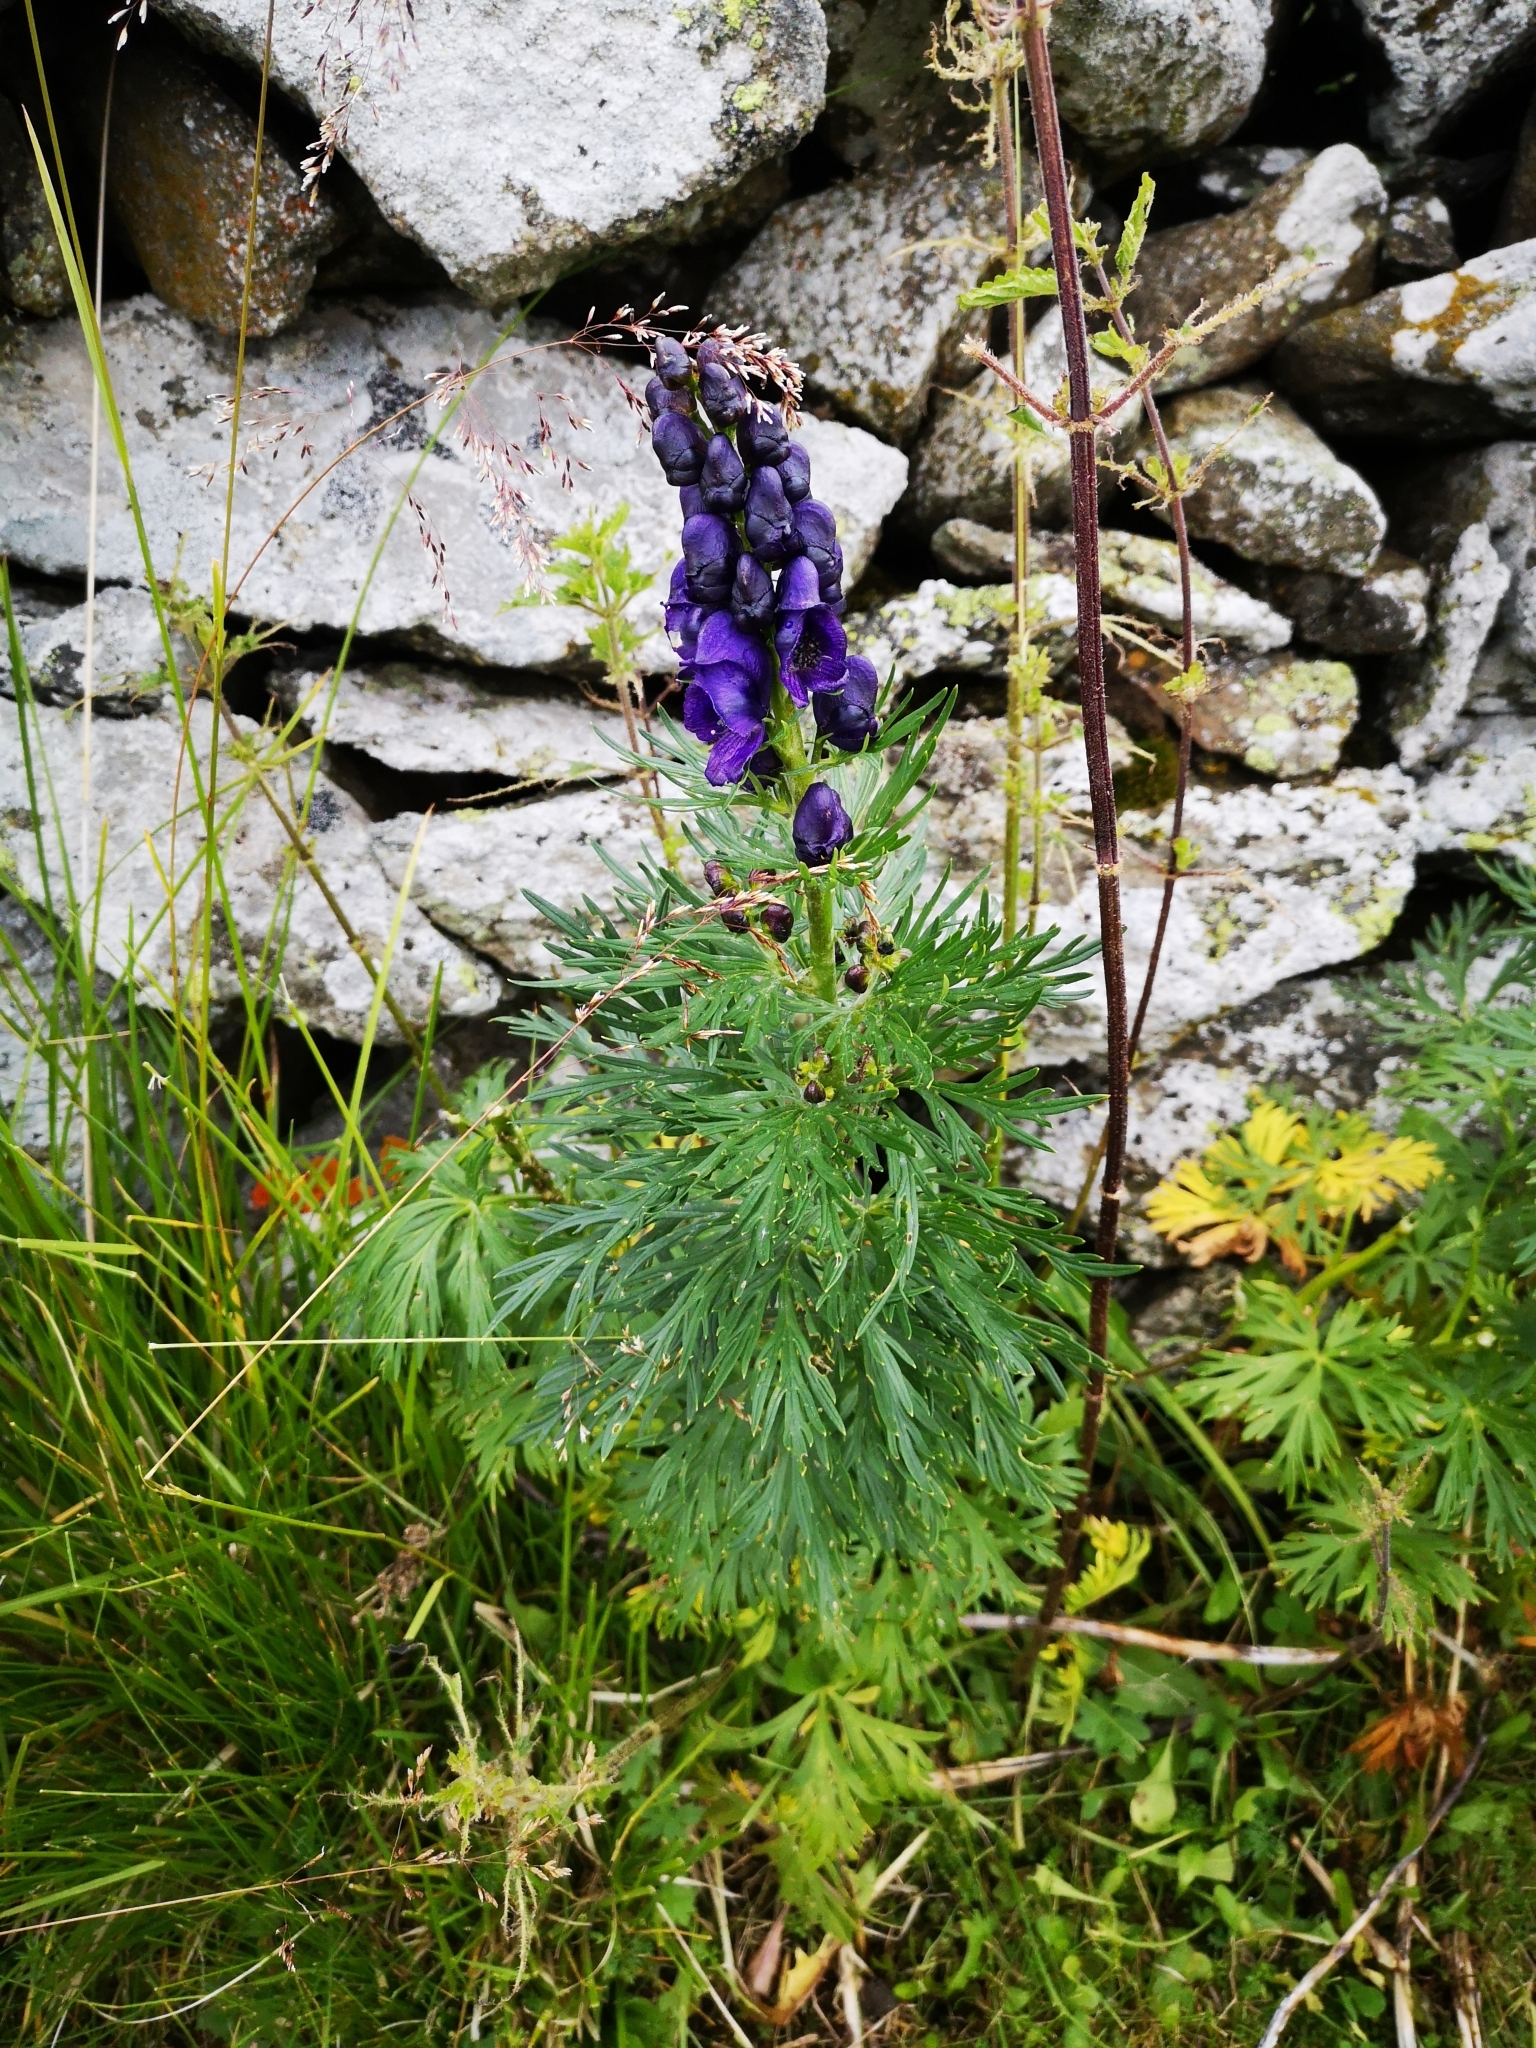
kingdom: Plantae
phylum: Tracheophyta
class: Magnoliopsida
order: Ranunculales
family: Ranunculaceae
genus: Aconitum
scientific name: Aconitum tauricum
